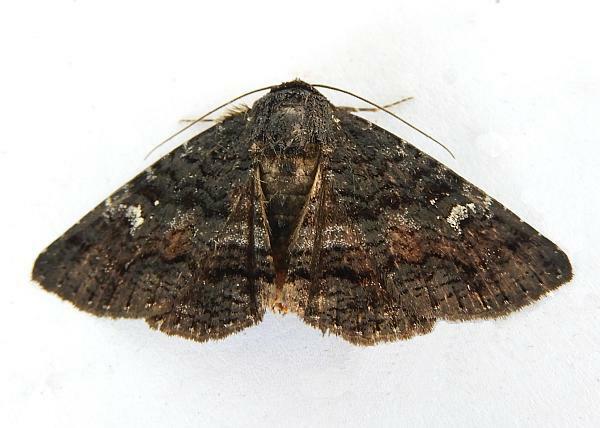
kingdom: Animalia
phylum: Arthropoda
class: Insecta
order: Lepidoptera
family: Erebidae
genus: Zale
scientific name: Zale coracias
